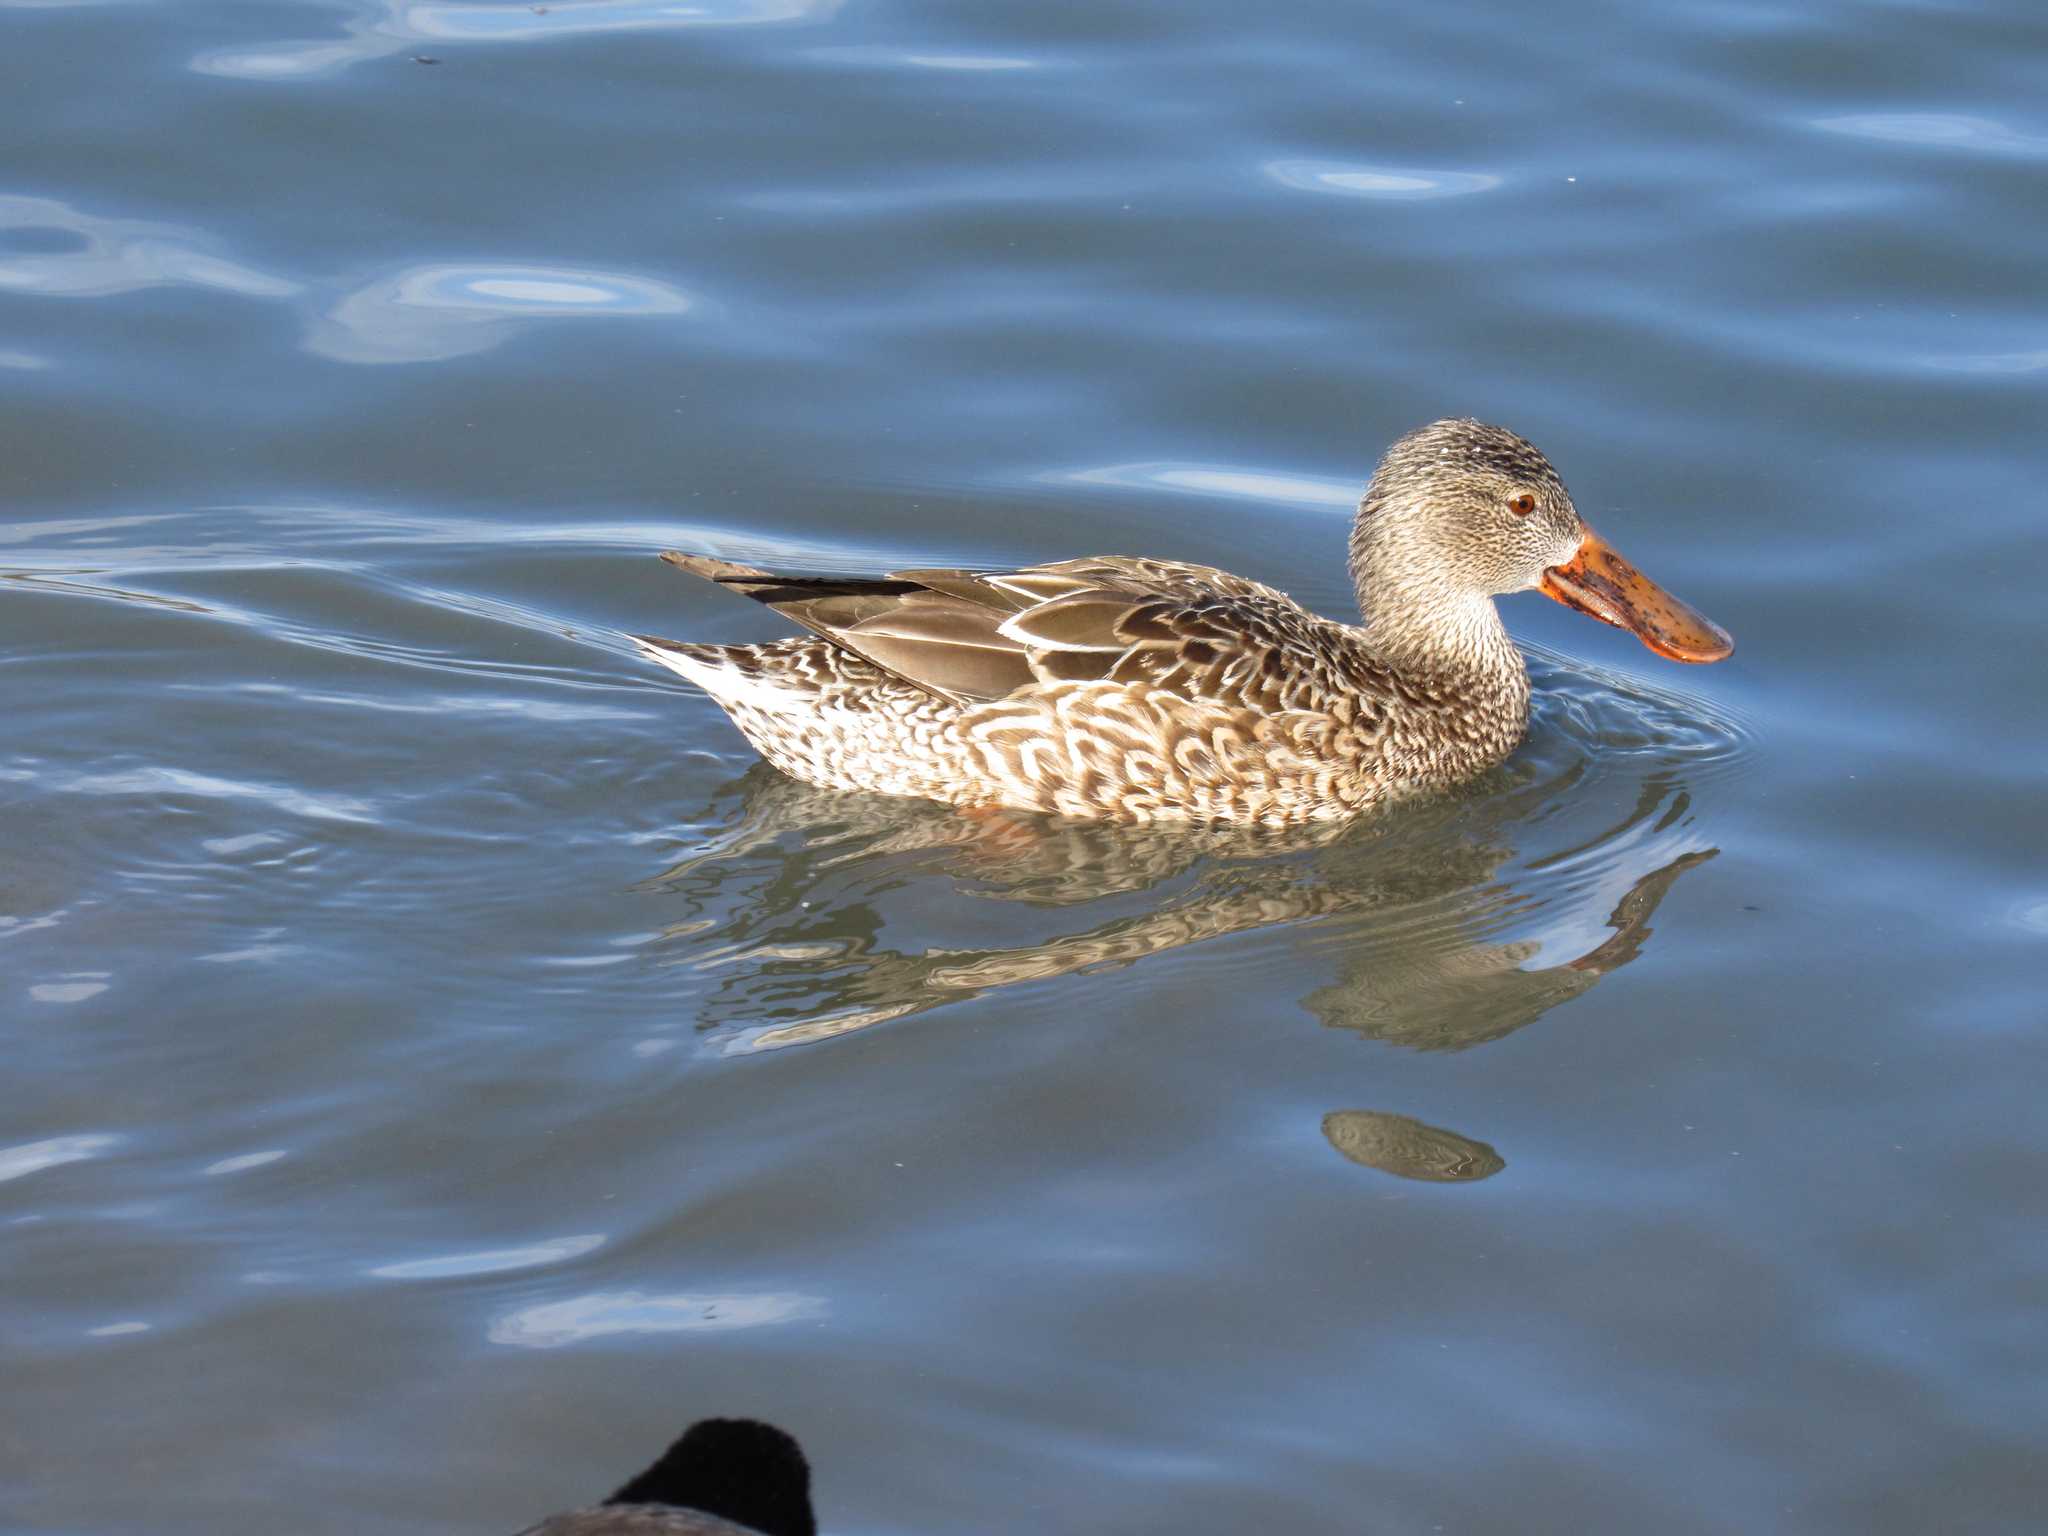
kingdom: Animalia
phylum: Chordata
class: Aves
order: Anseriformes
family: Anatidae
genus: Spatula
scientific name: Spatula clypeata
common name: Northern shoveler
